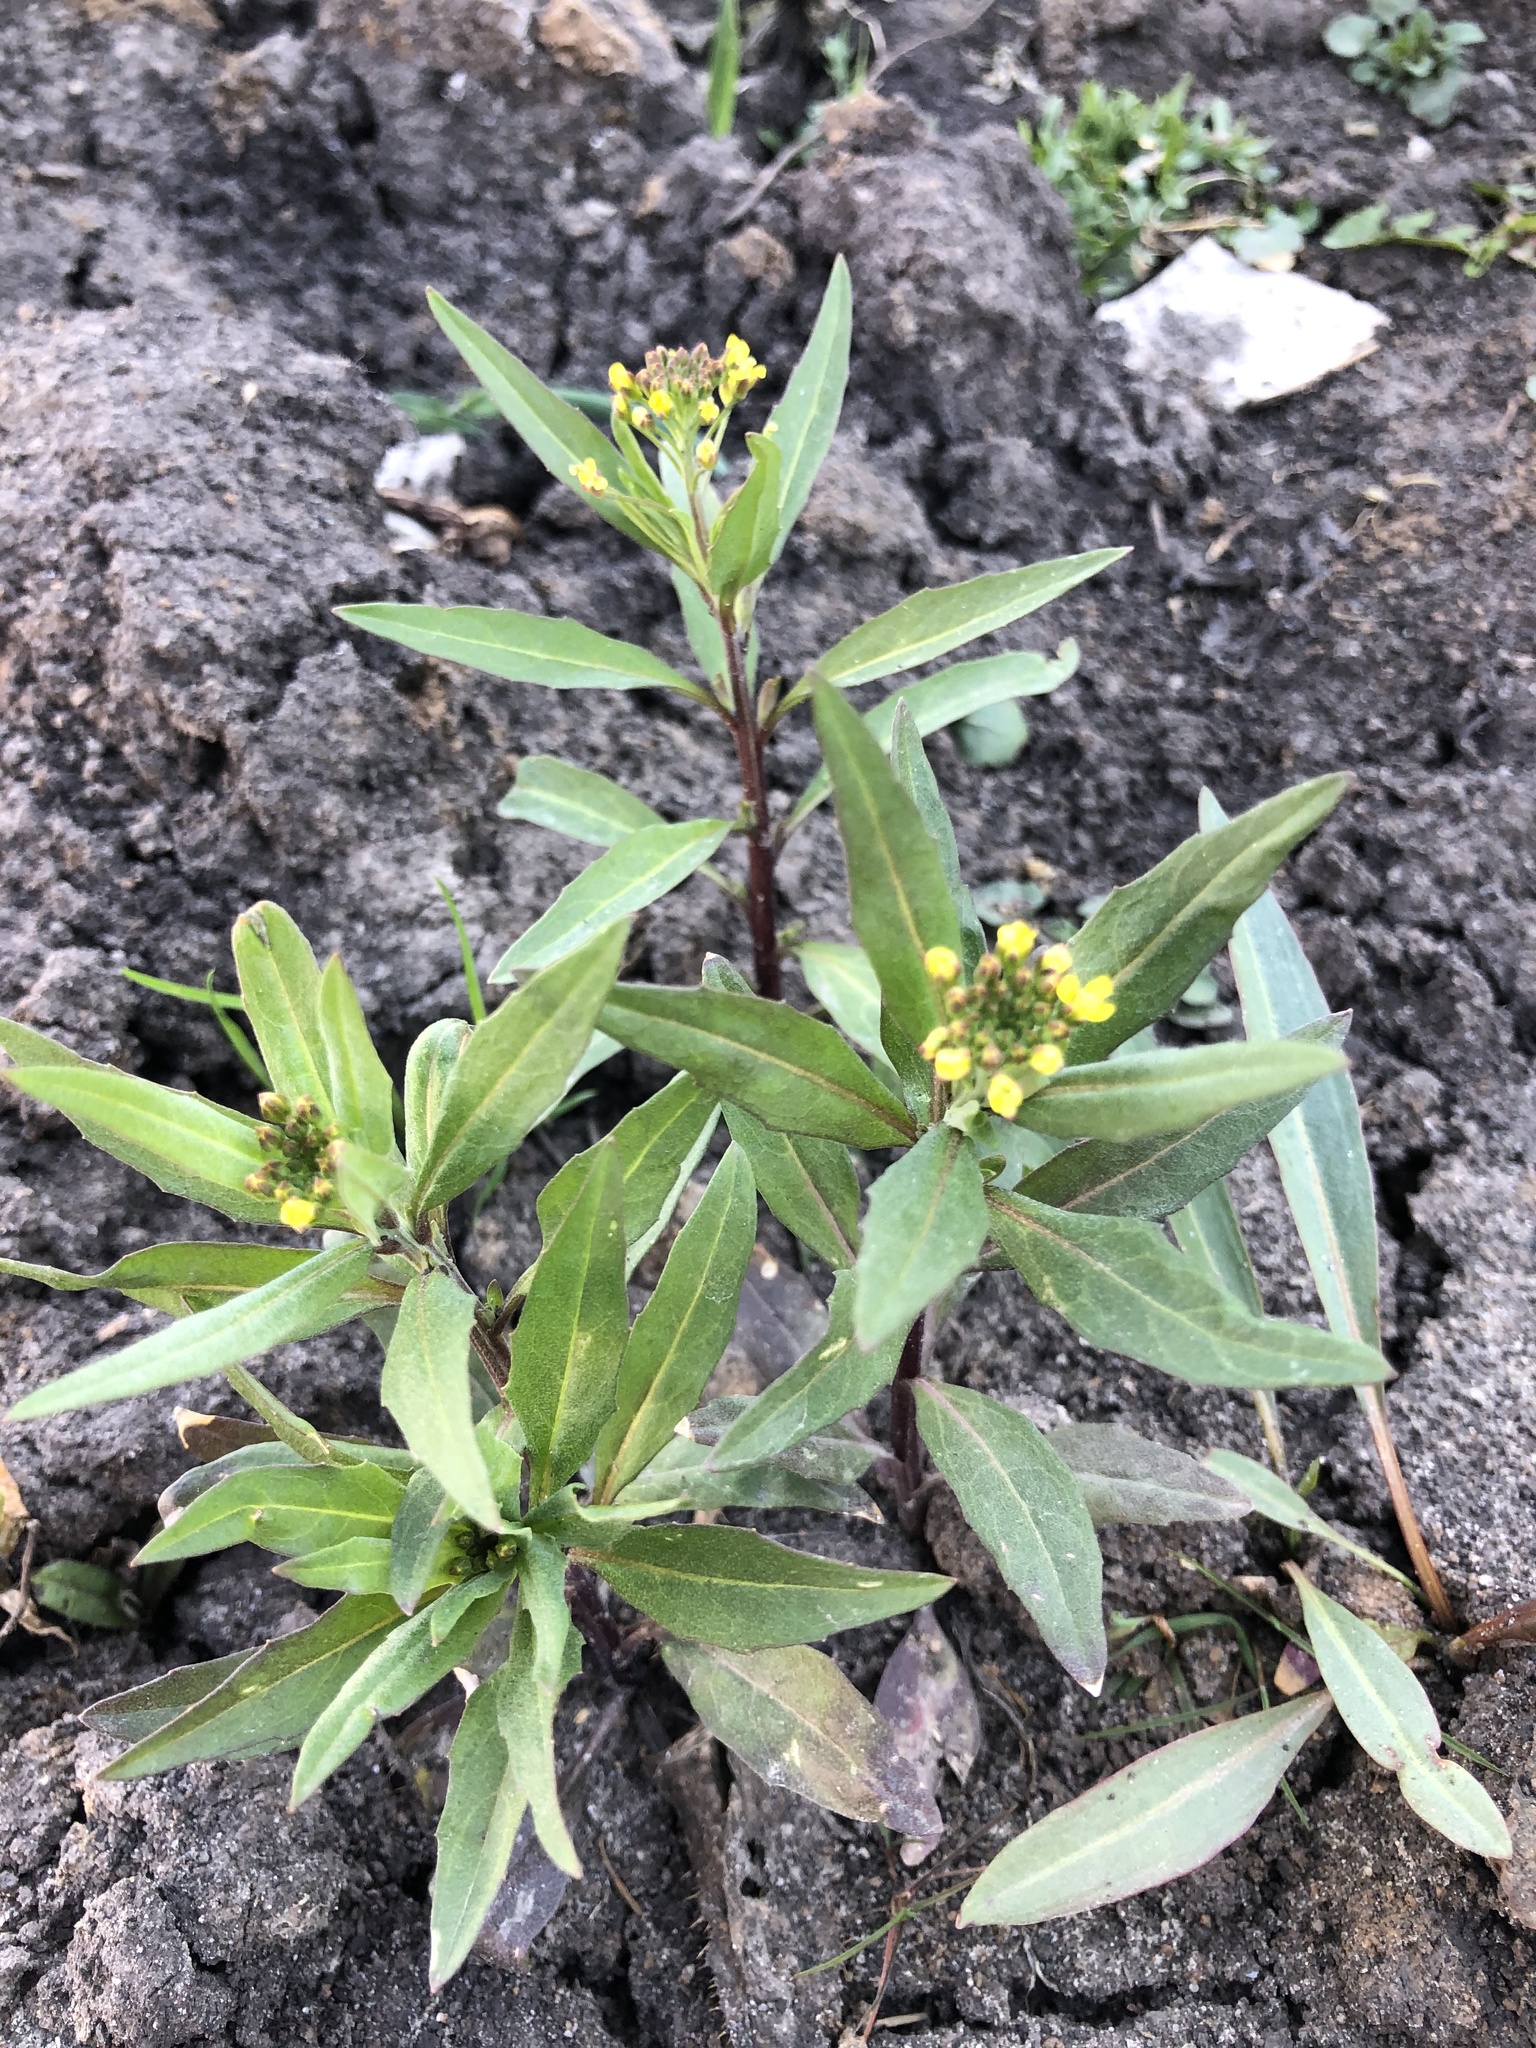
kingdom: Plantae
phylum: Tracheophyta
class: Magnoliopsida
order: Brassicales
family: Brassicaceae
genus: Erysimum
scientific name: Erysimum cheiranthoides
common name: Treacle mustard
